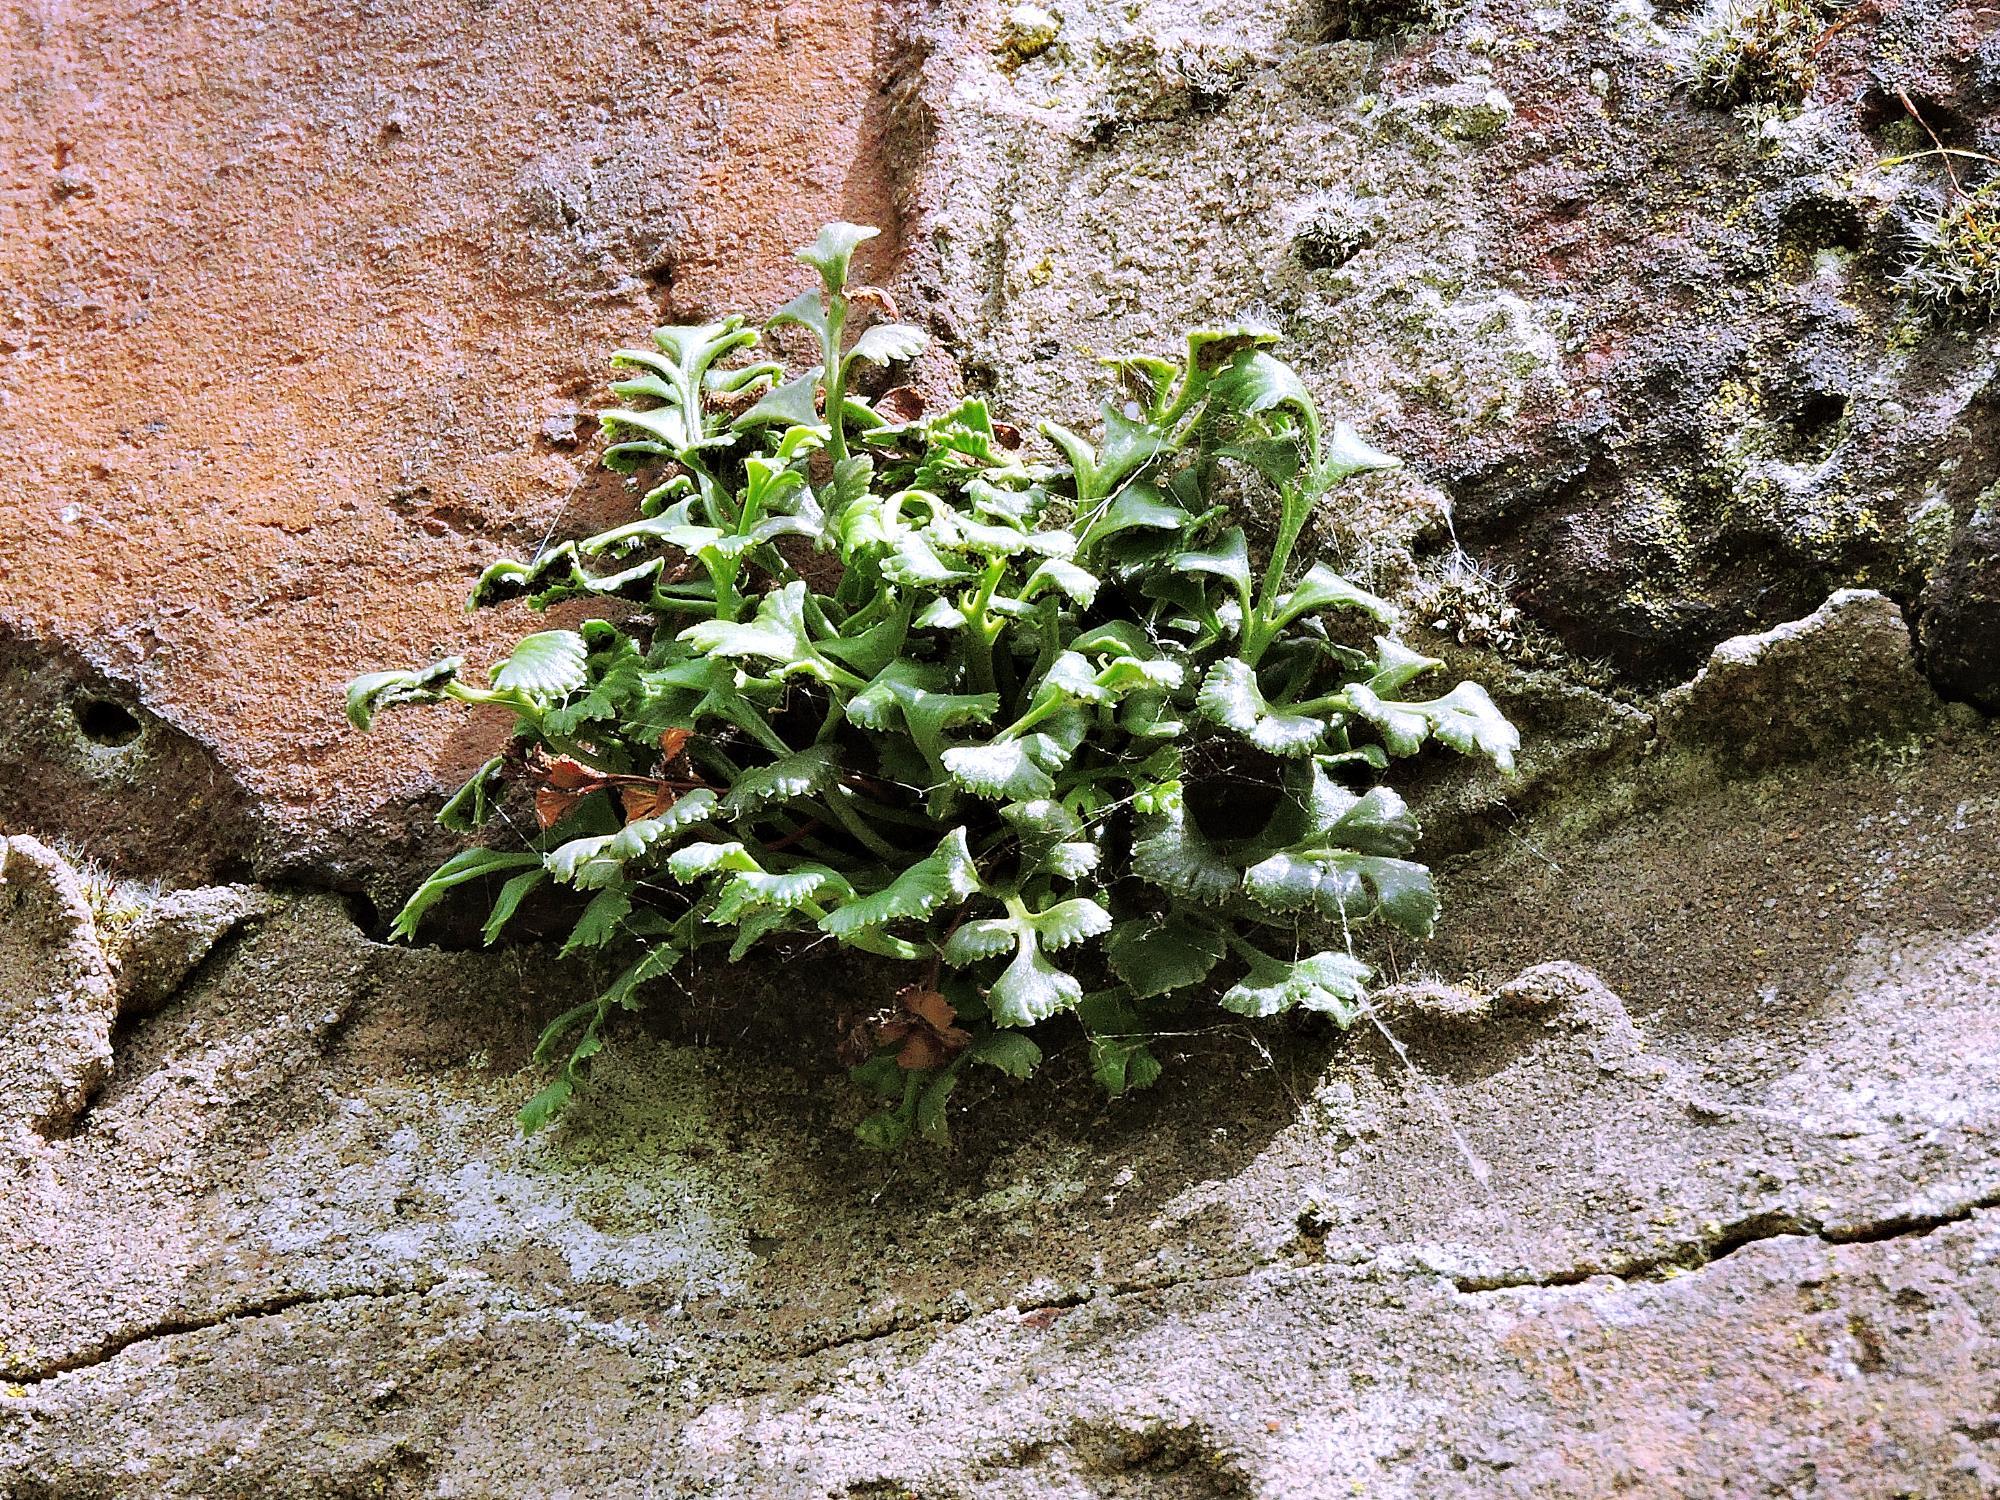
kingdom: Plantae
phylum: Tracheophyta
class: Polypodiopsida
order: Polypodiales
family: Aspleniaceae
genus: Asplenium
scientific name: Asplenium ruta-muraria
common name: Wall-rue
